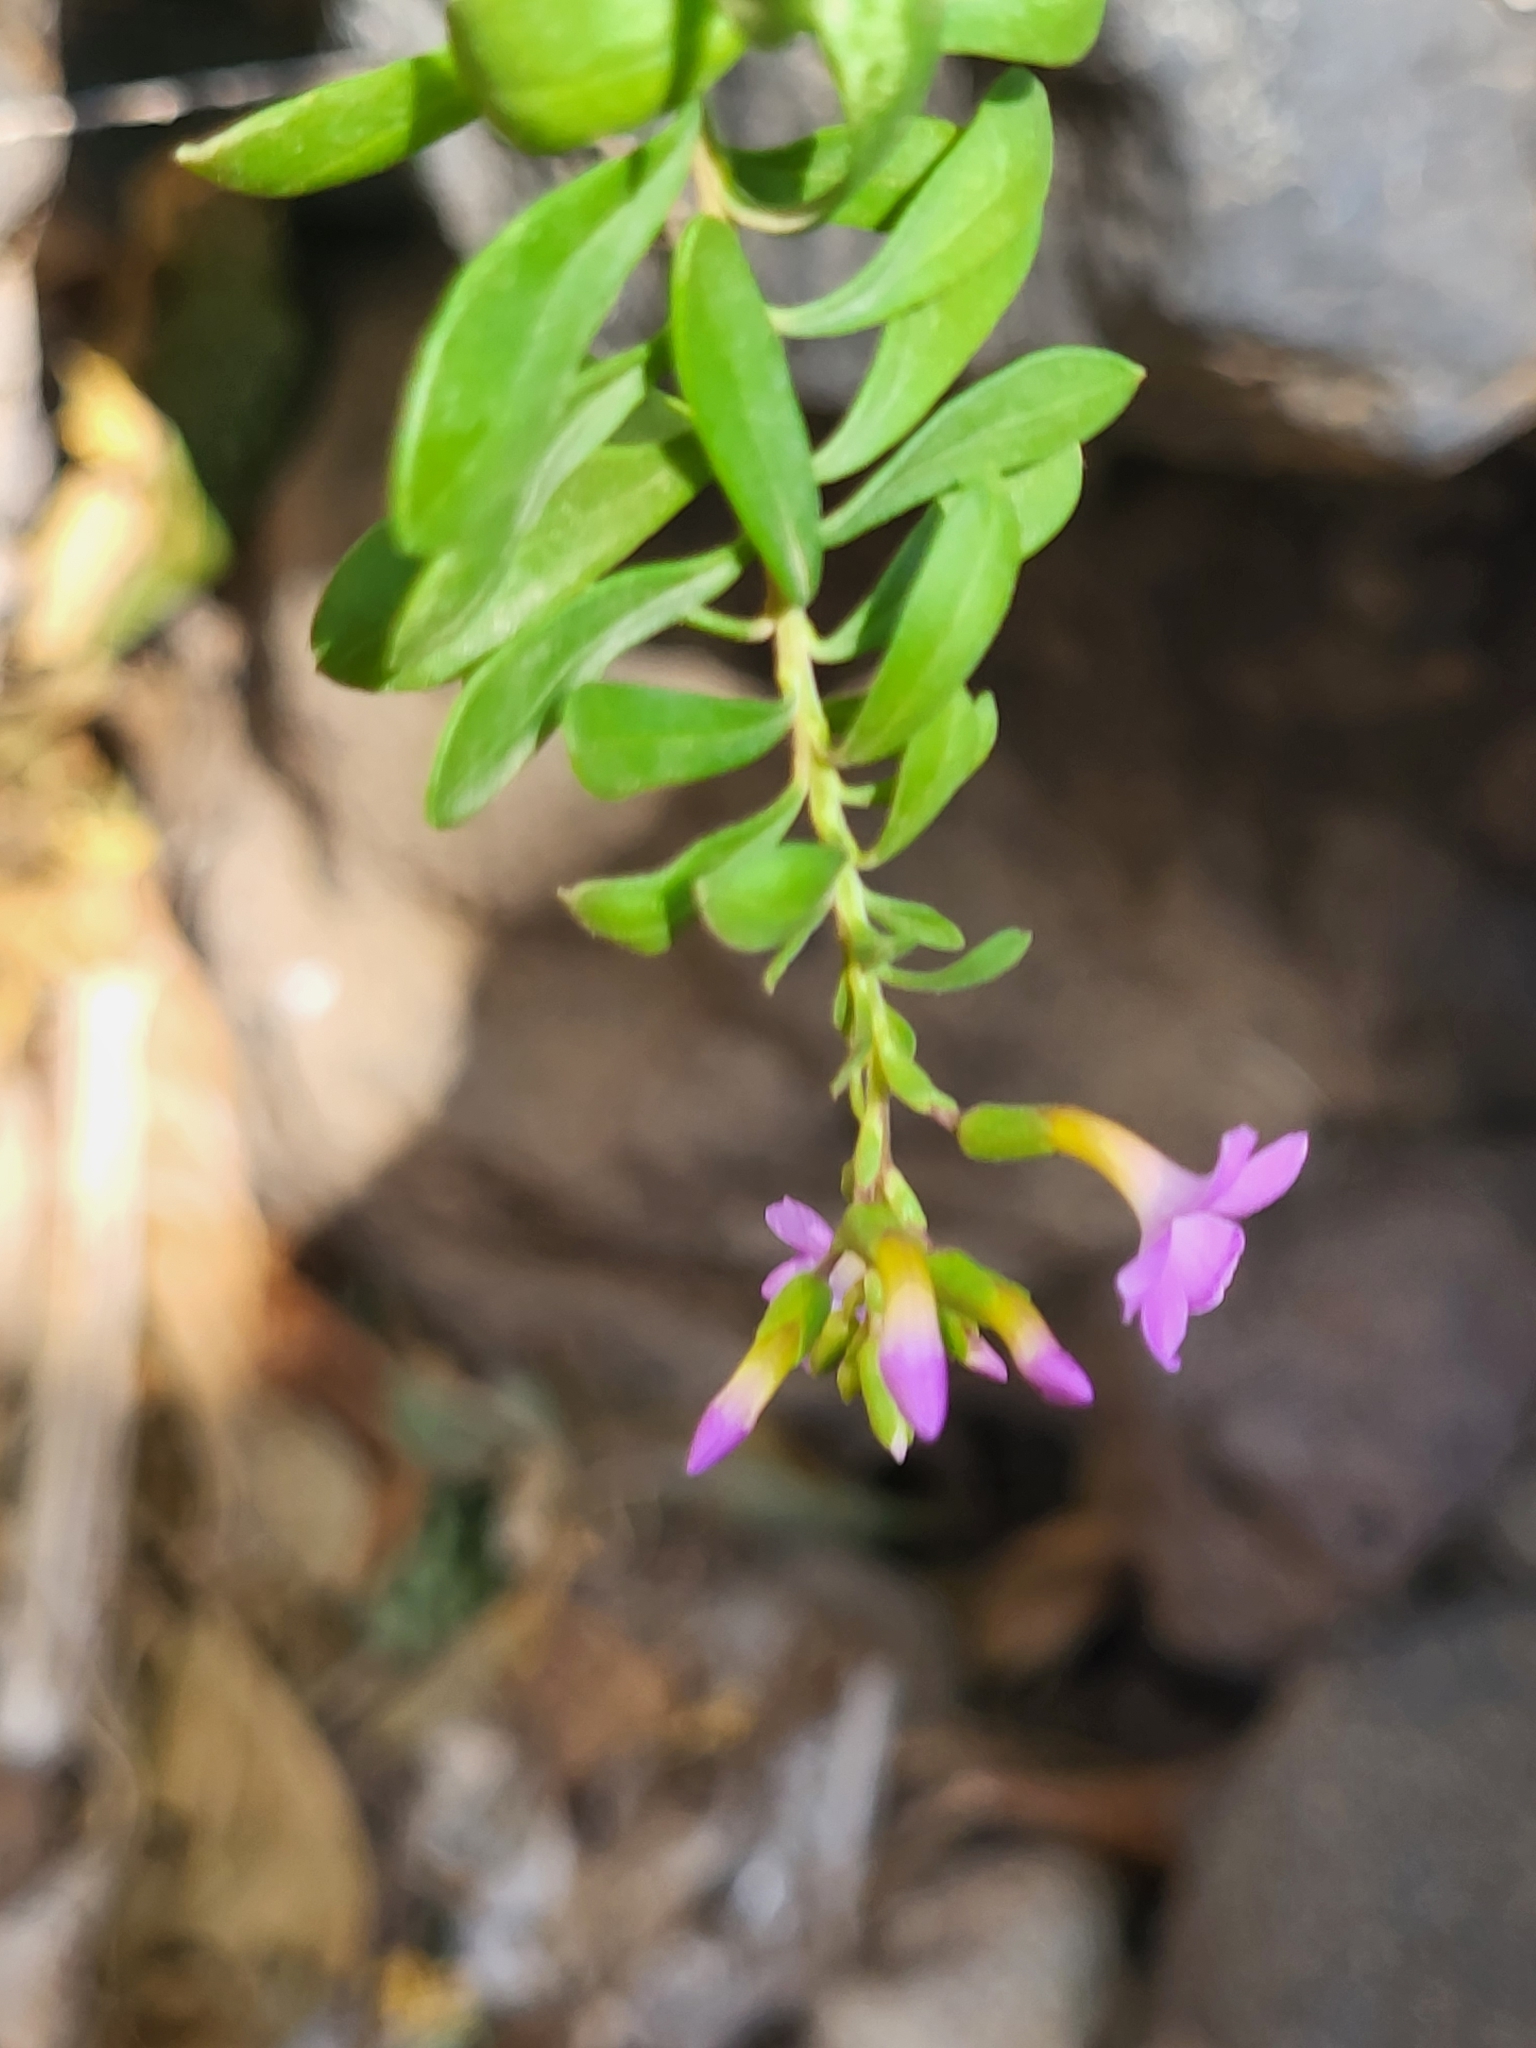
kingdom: Plantae
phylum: Tracheophyta
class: Magnoliopsida
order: Lamiales
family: Plantaginaceae
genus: Campylanthus
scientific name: Campylanthus glaber
